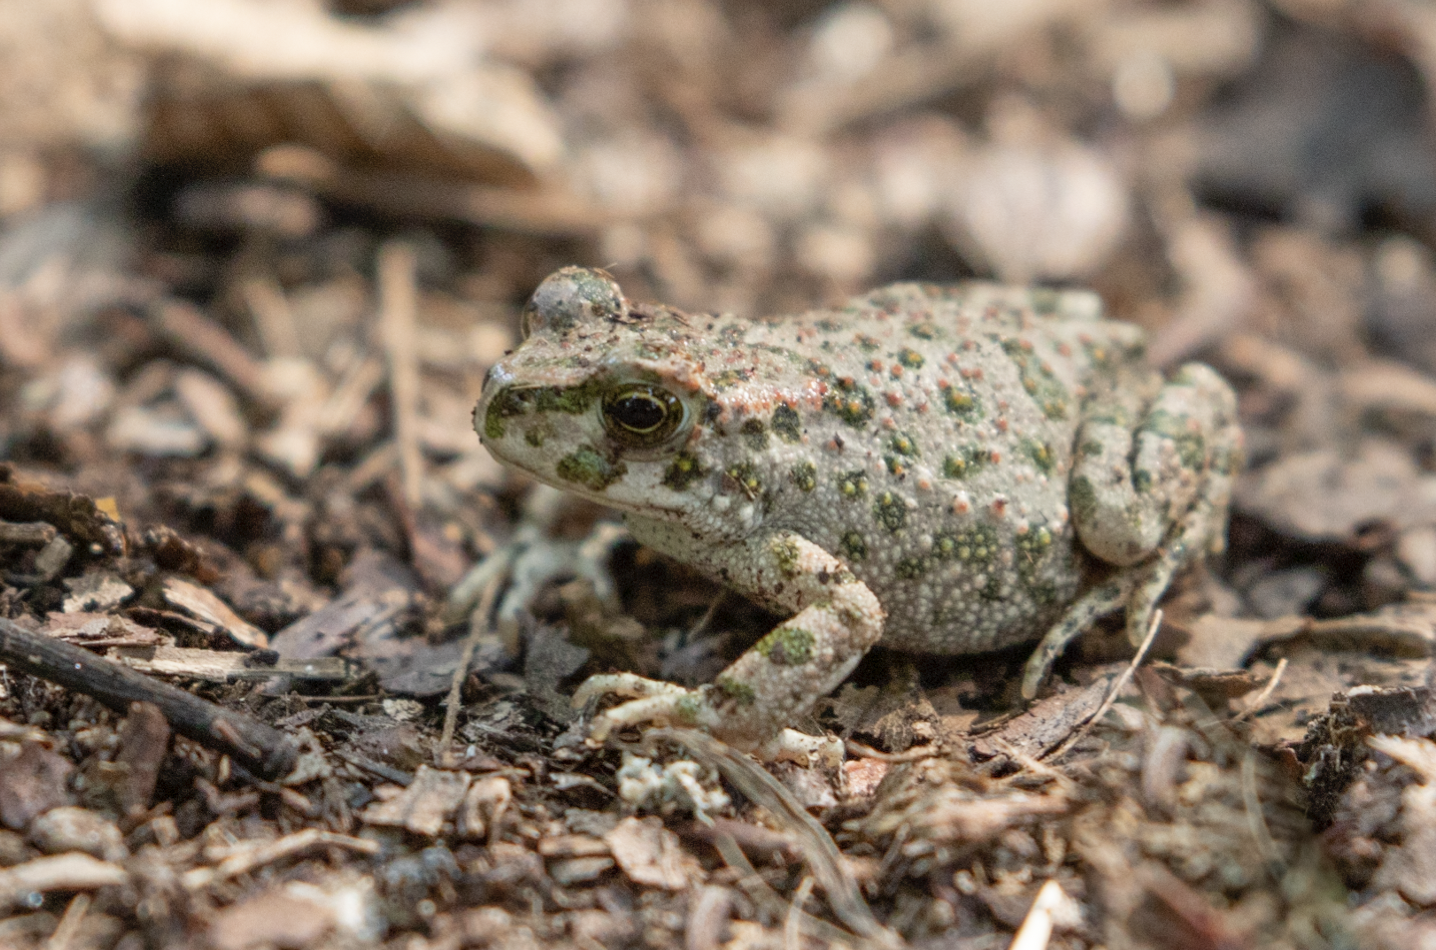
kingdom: Animalia
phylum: Chordata
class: Amphibia
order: Anura
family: Bufonidae
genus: Bufotes
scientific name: Bufotes viridis
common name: European green toad
